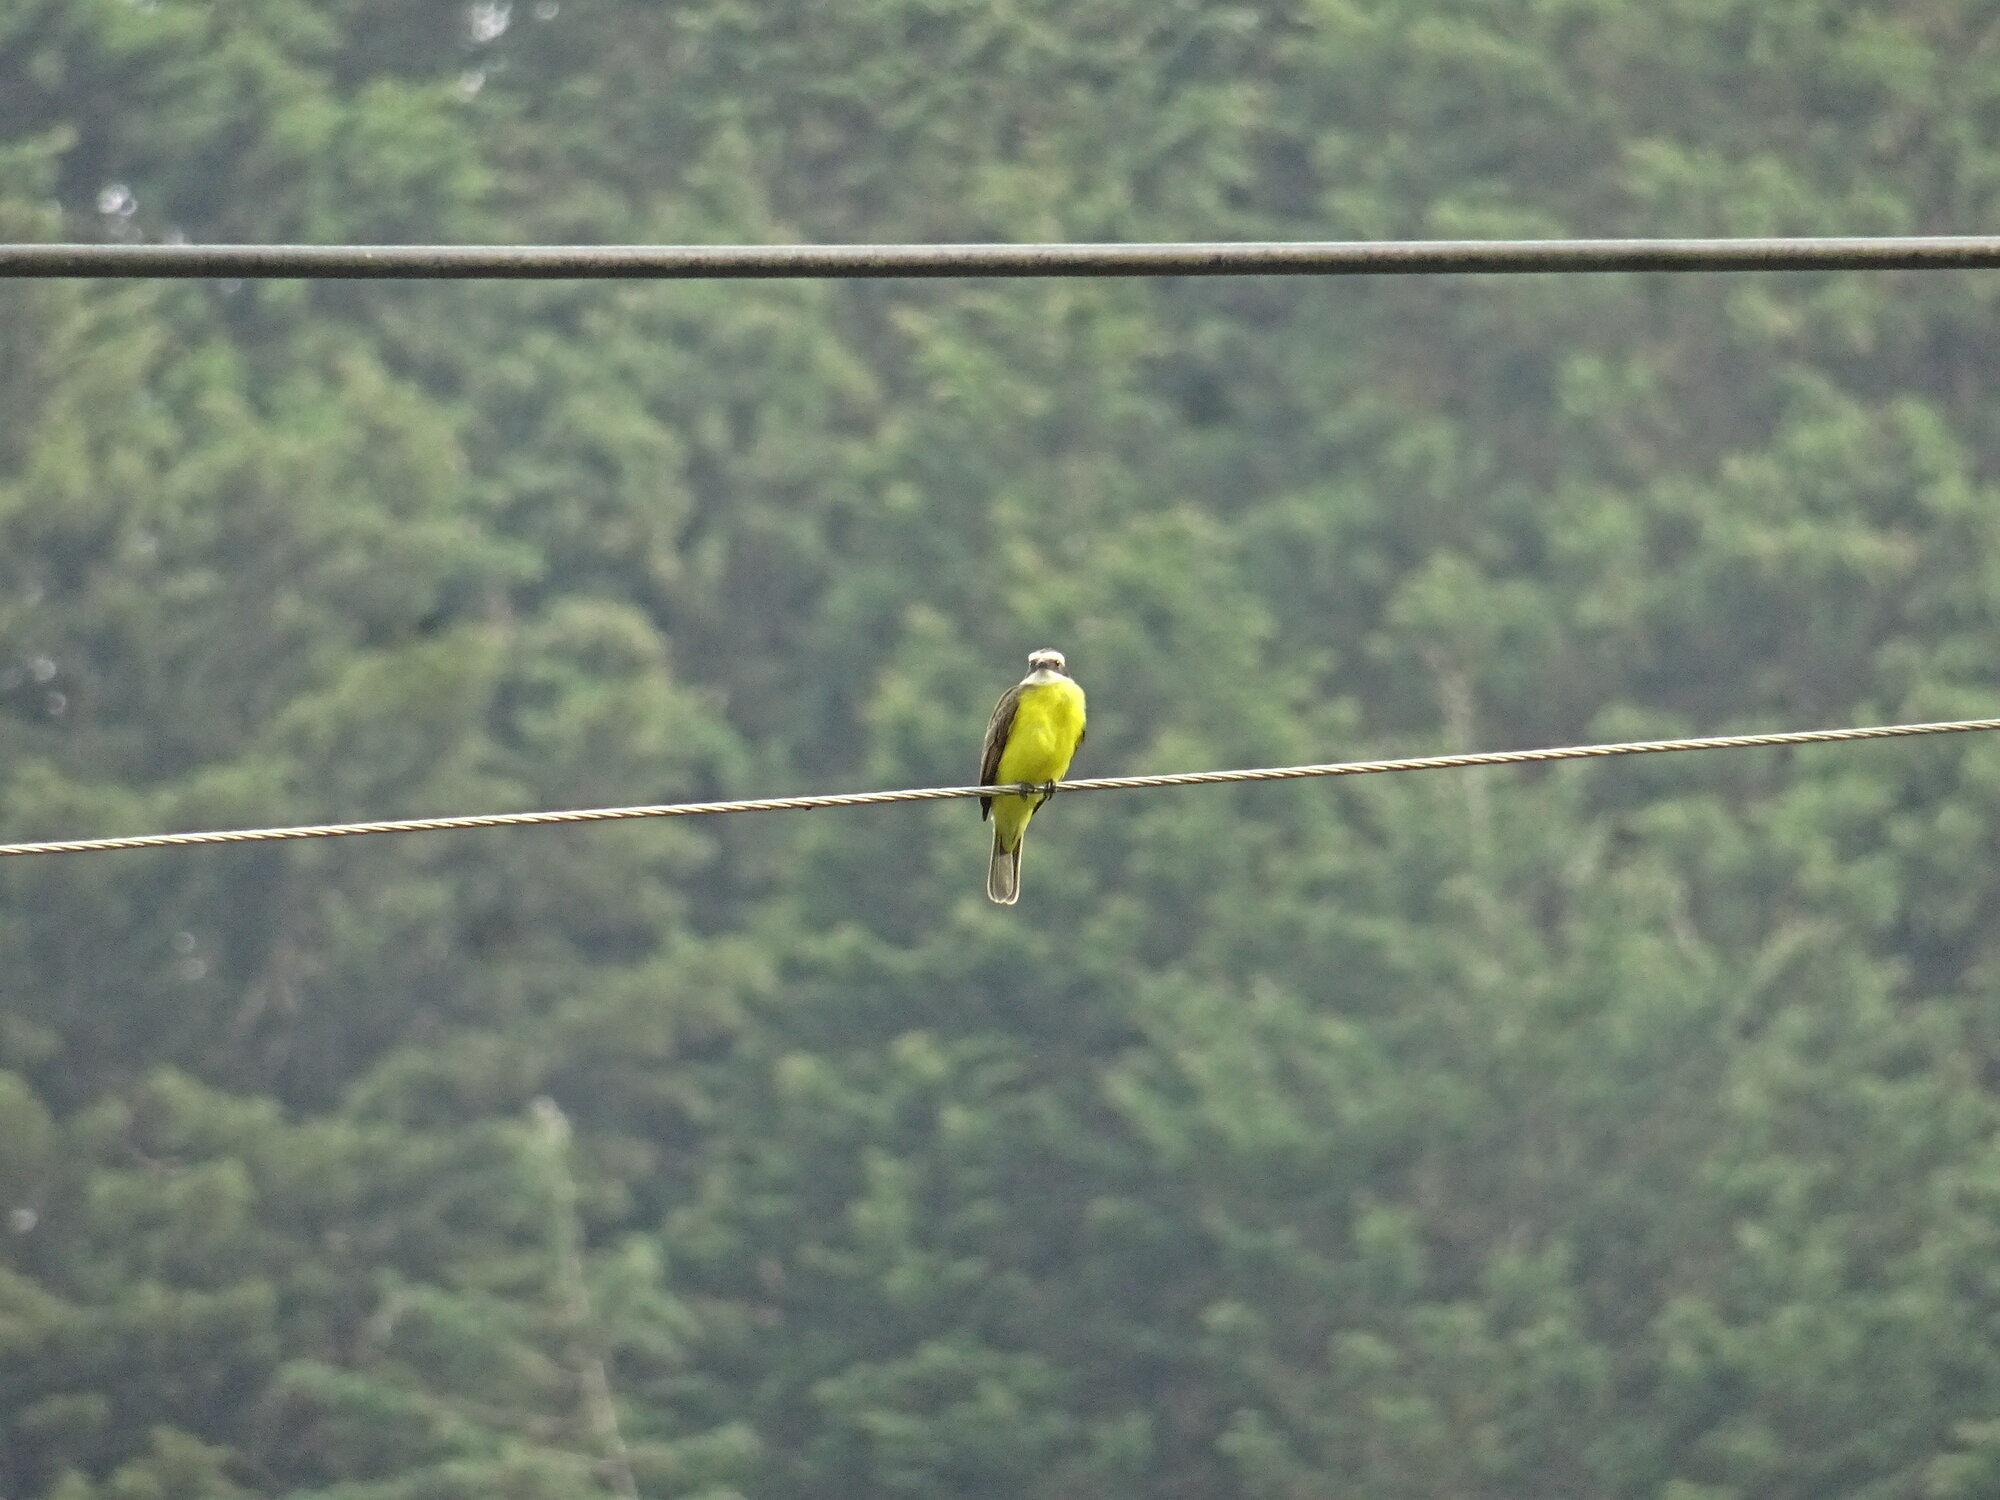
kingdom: Animalia
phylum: Chordata
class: Aves
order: Passeriformes
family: Tyrannidae
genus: Myiozetetes
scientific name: Myiozetetes cayanensis
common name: Rusty-margined flycatcher
